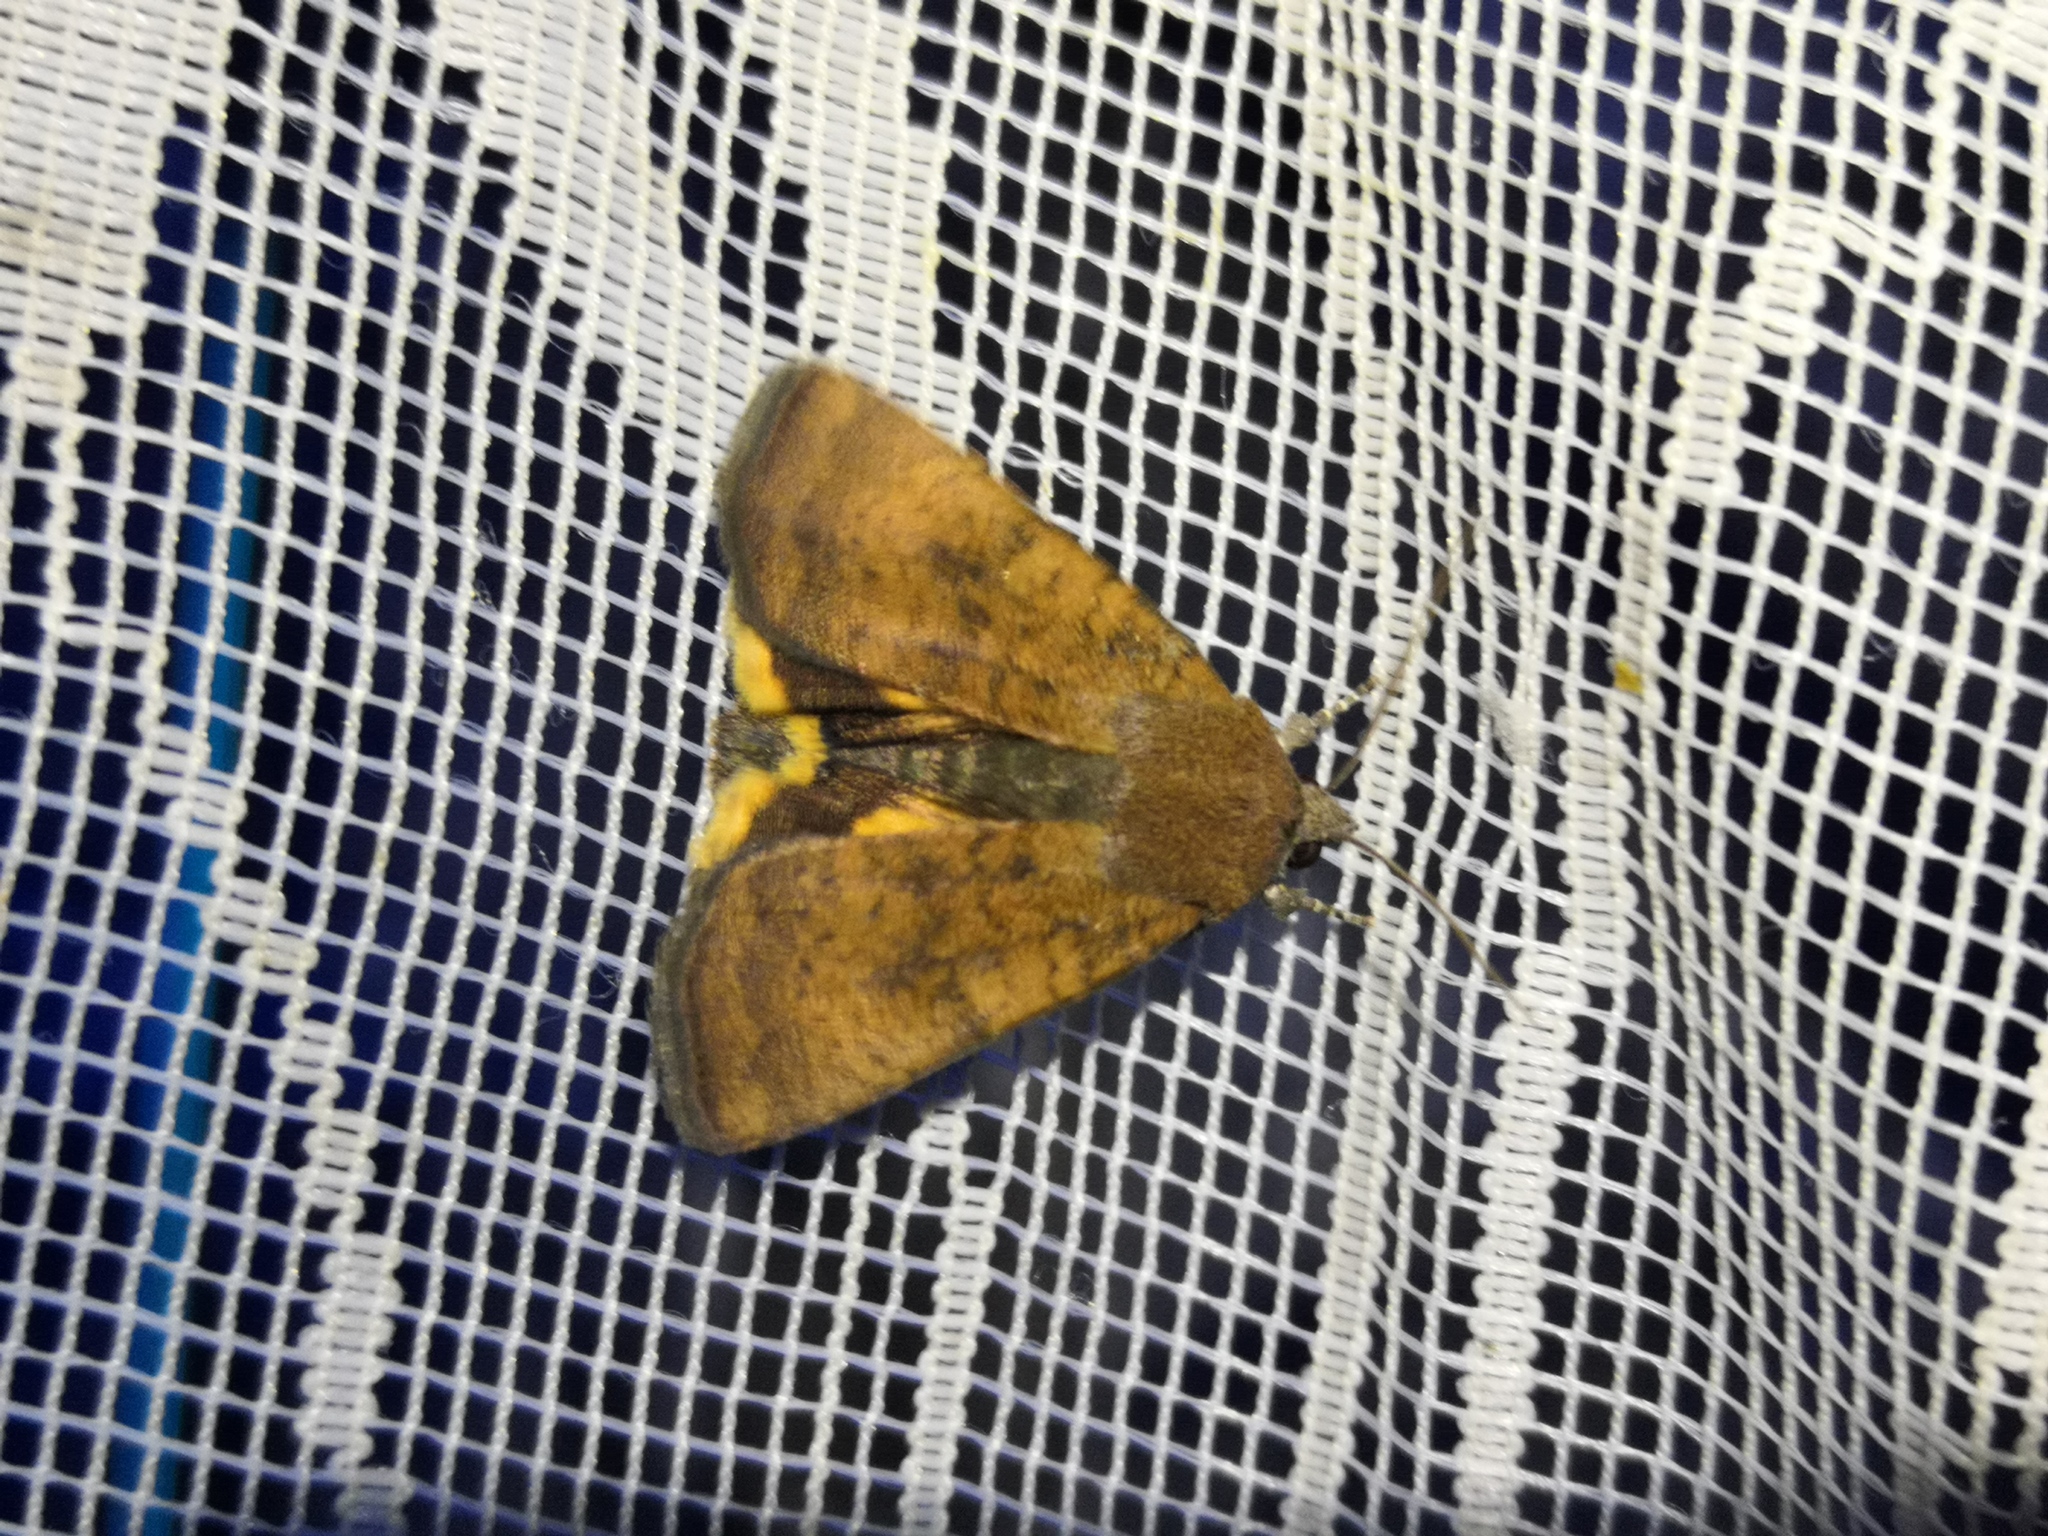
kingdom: Animalia
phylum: Arthropoda
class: Insecta
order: Lepidoptera
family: Noctuidae
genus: Noctua
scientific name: Noctua interjecta
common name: Least yellow underwing
